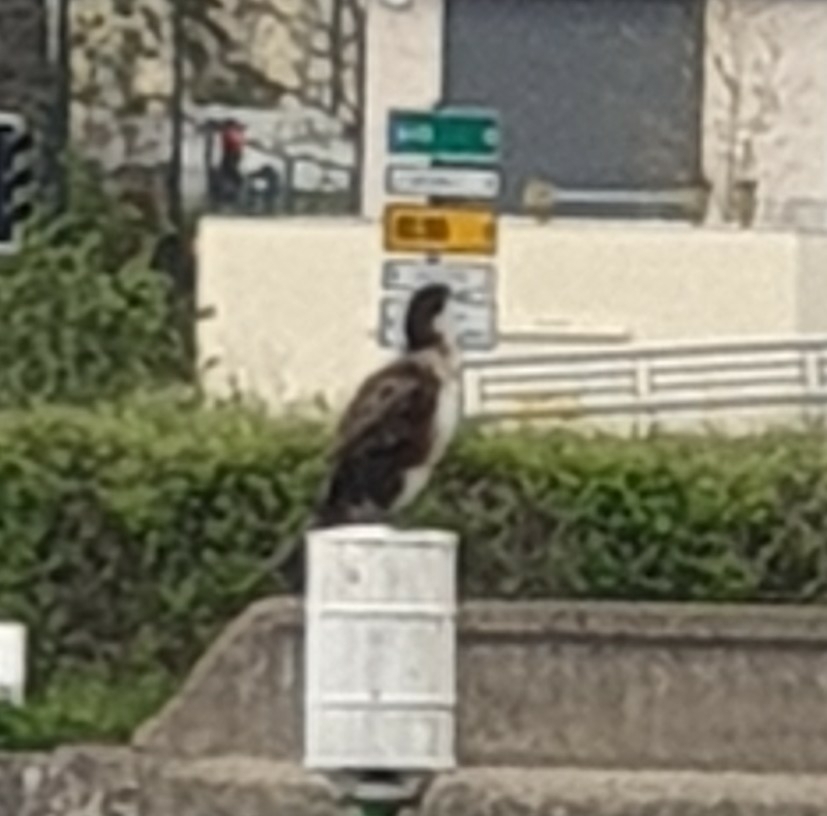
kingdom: Animalia
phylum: Chordata
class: Aves
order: Suliformes
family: Phalacrocoracidae
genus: Phalacrocorax
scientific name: Phalacrocorax carbo
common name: Great cormorant
